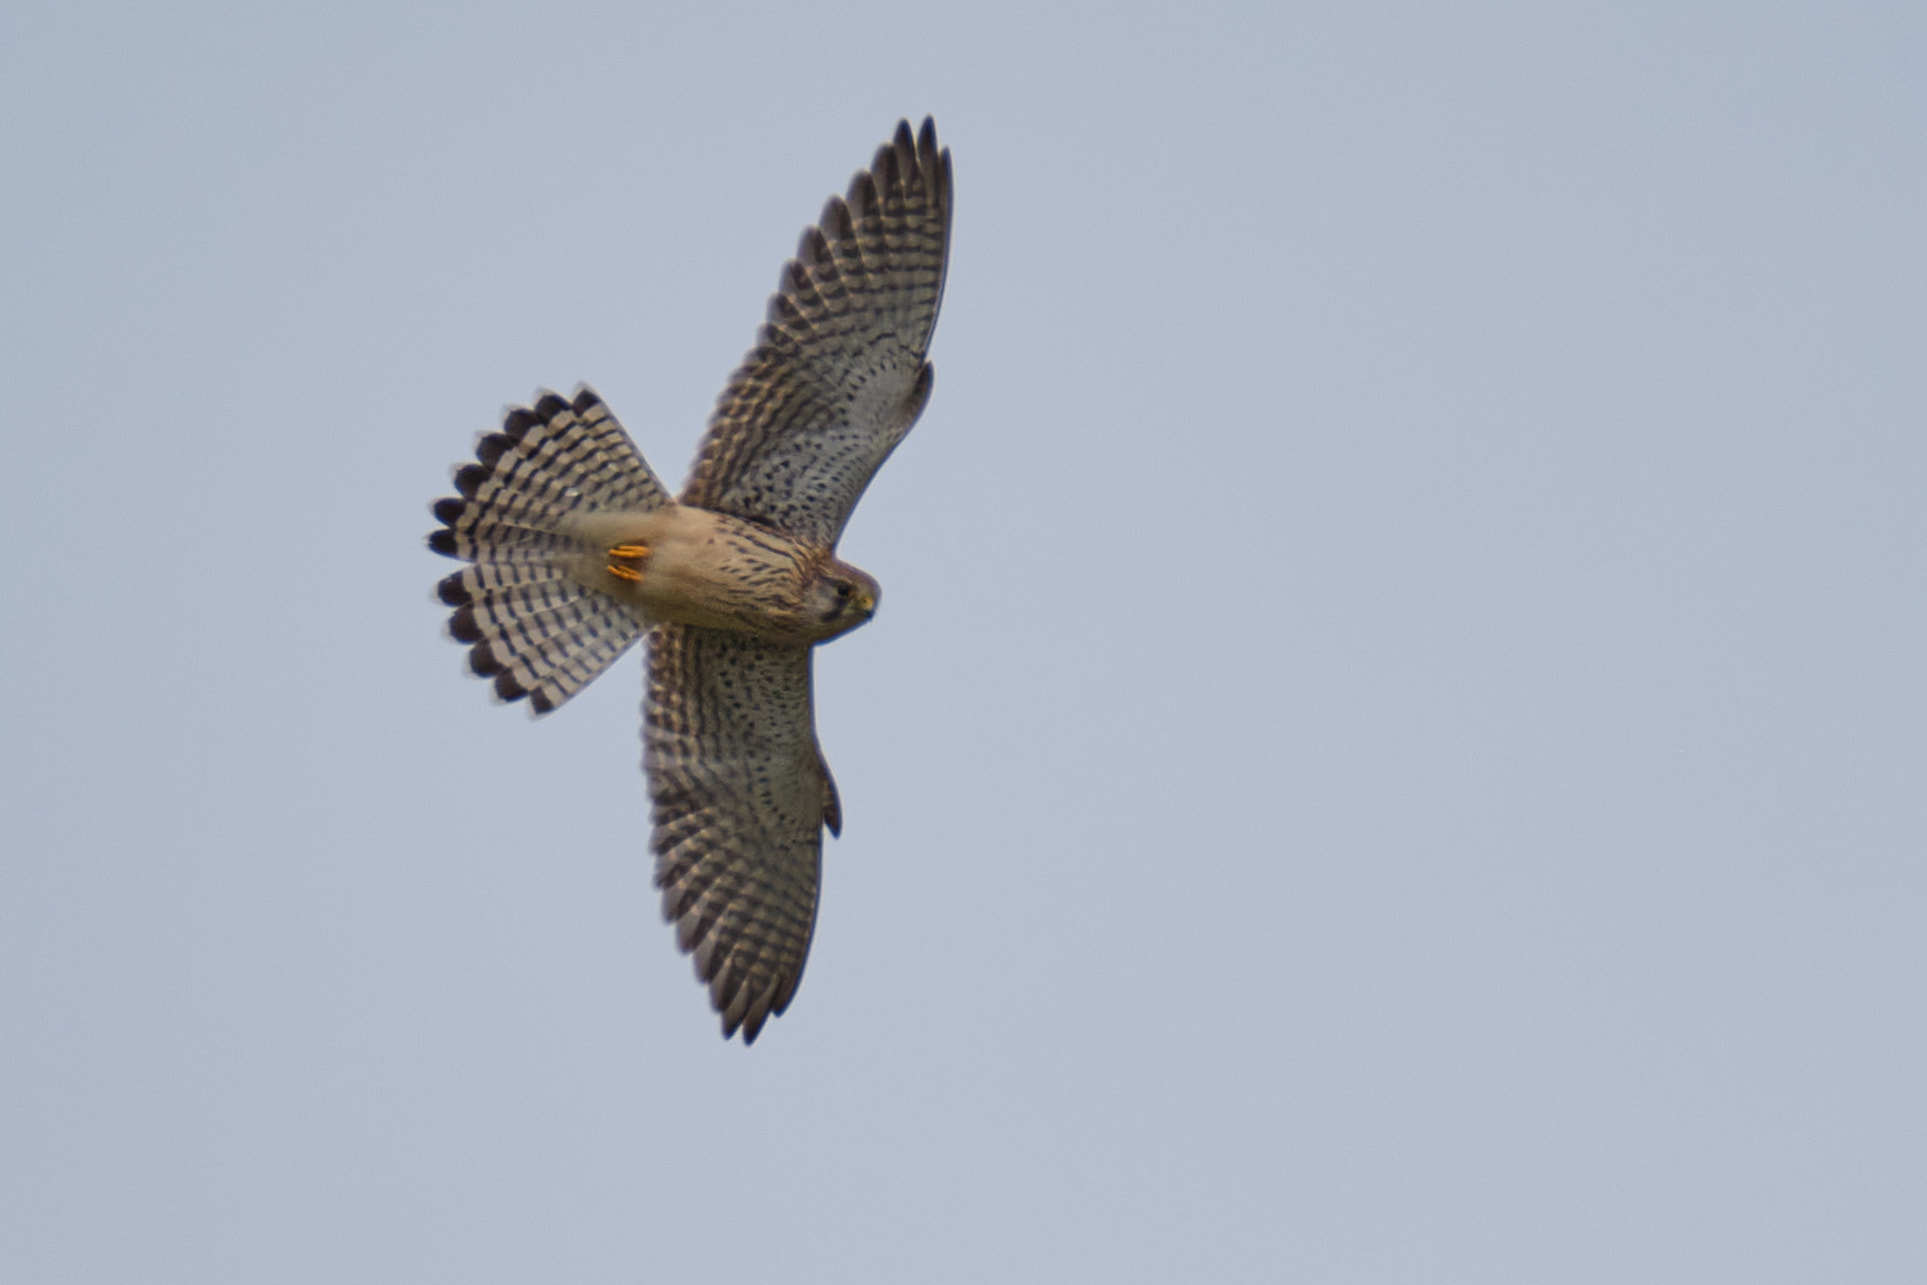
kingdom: Animalia
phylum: Chordata
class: Aves
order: Falconiformes
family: Falconidae
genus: Falco
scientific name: Falco tinnunculus
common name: Common kestrel
